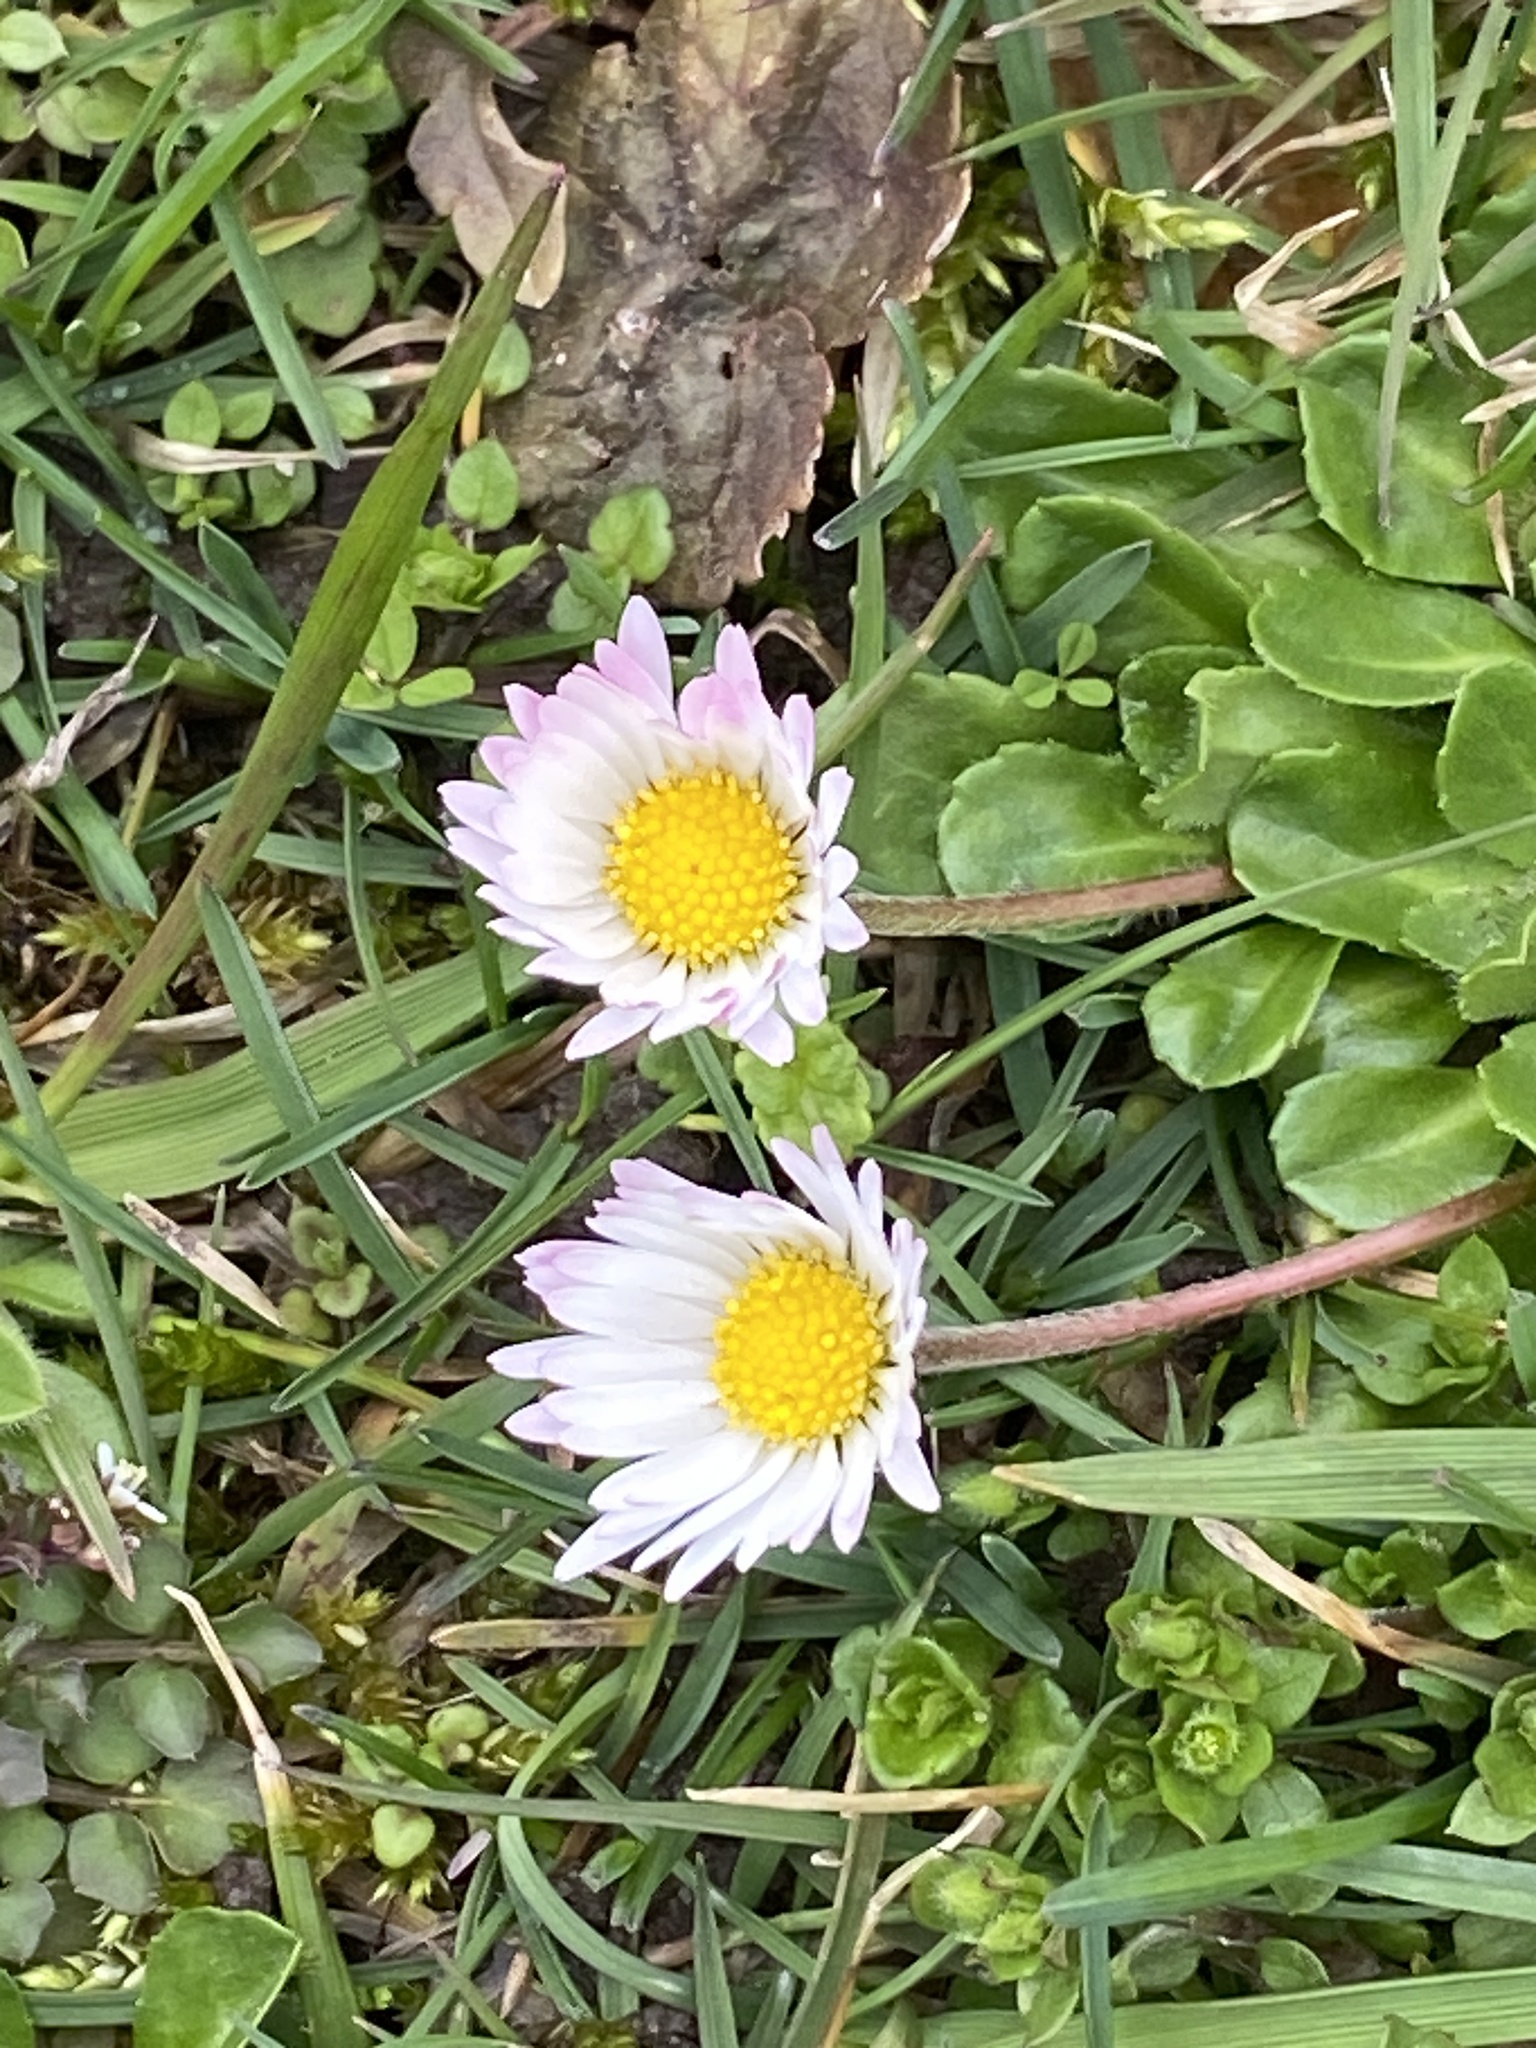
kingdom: Plantae
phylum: Tracheophyta
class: Magnoliopsida
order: Asterales
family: Asteraceae
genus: Bellis
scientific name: Bellis perennis
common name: Lawndaisy
